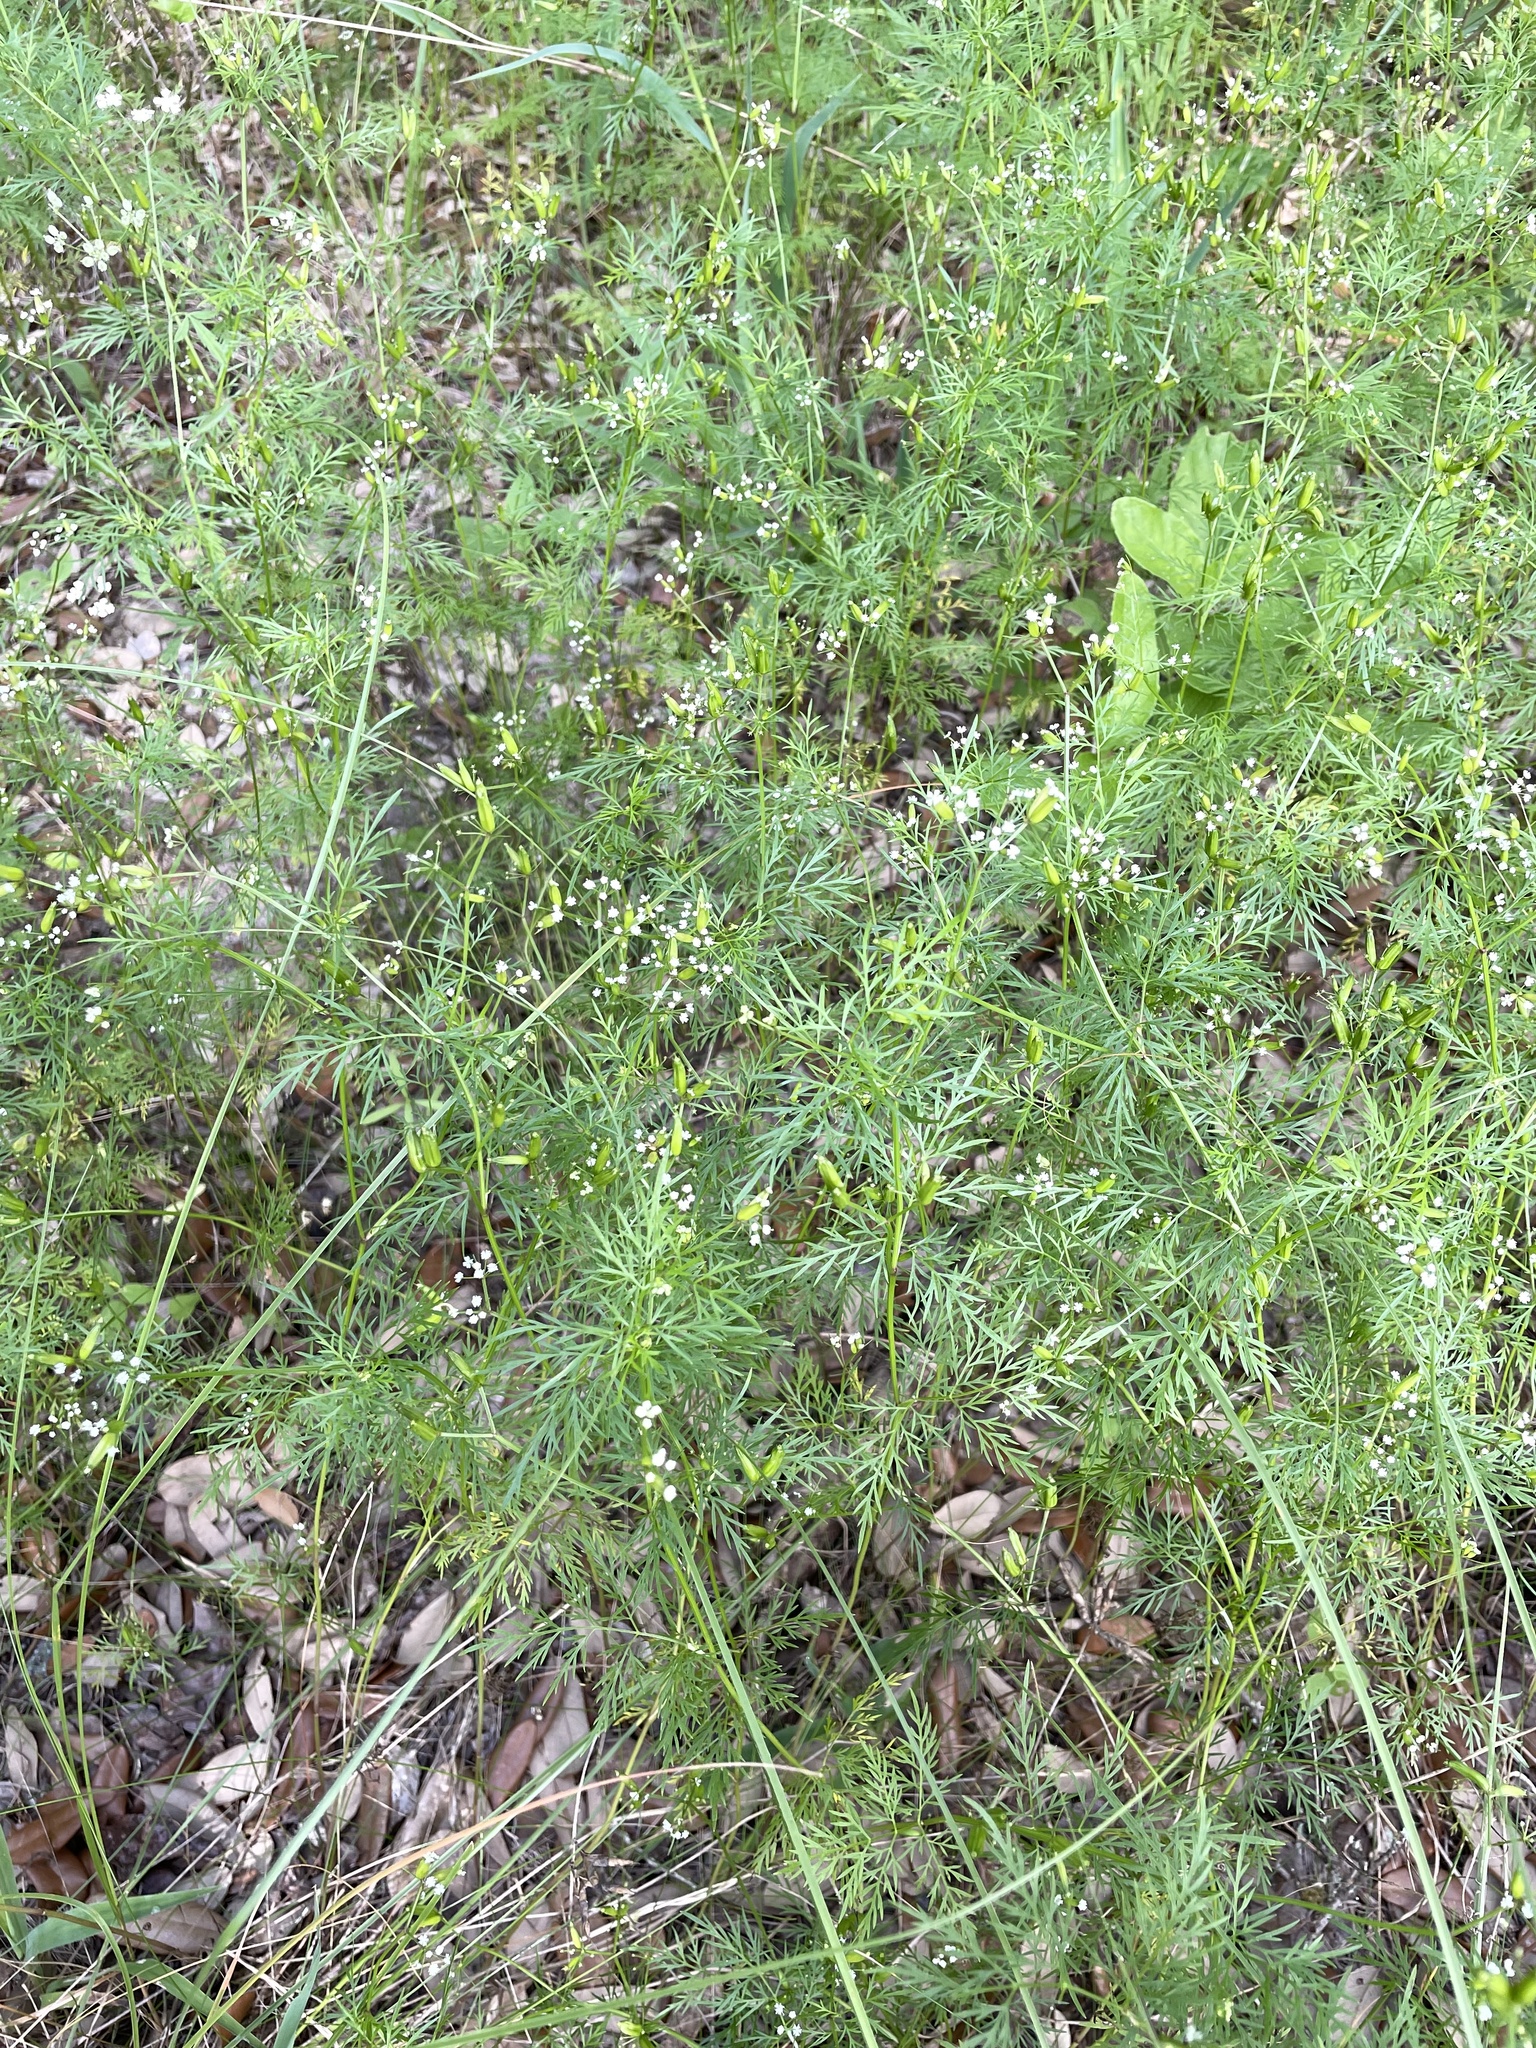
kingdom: Plantae
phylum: Tracheophyta
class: Magnoliopsida
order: Apiales
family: Apiaceae
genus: Trepocarpus
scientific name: Trepocarpus aethusae
